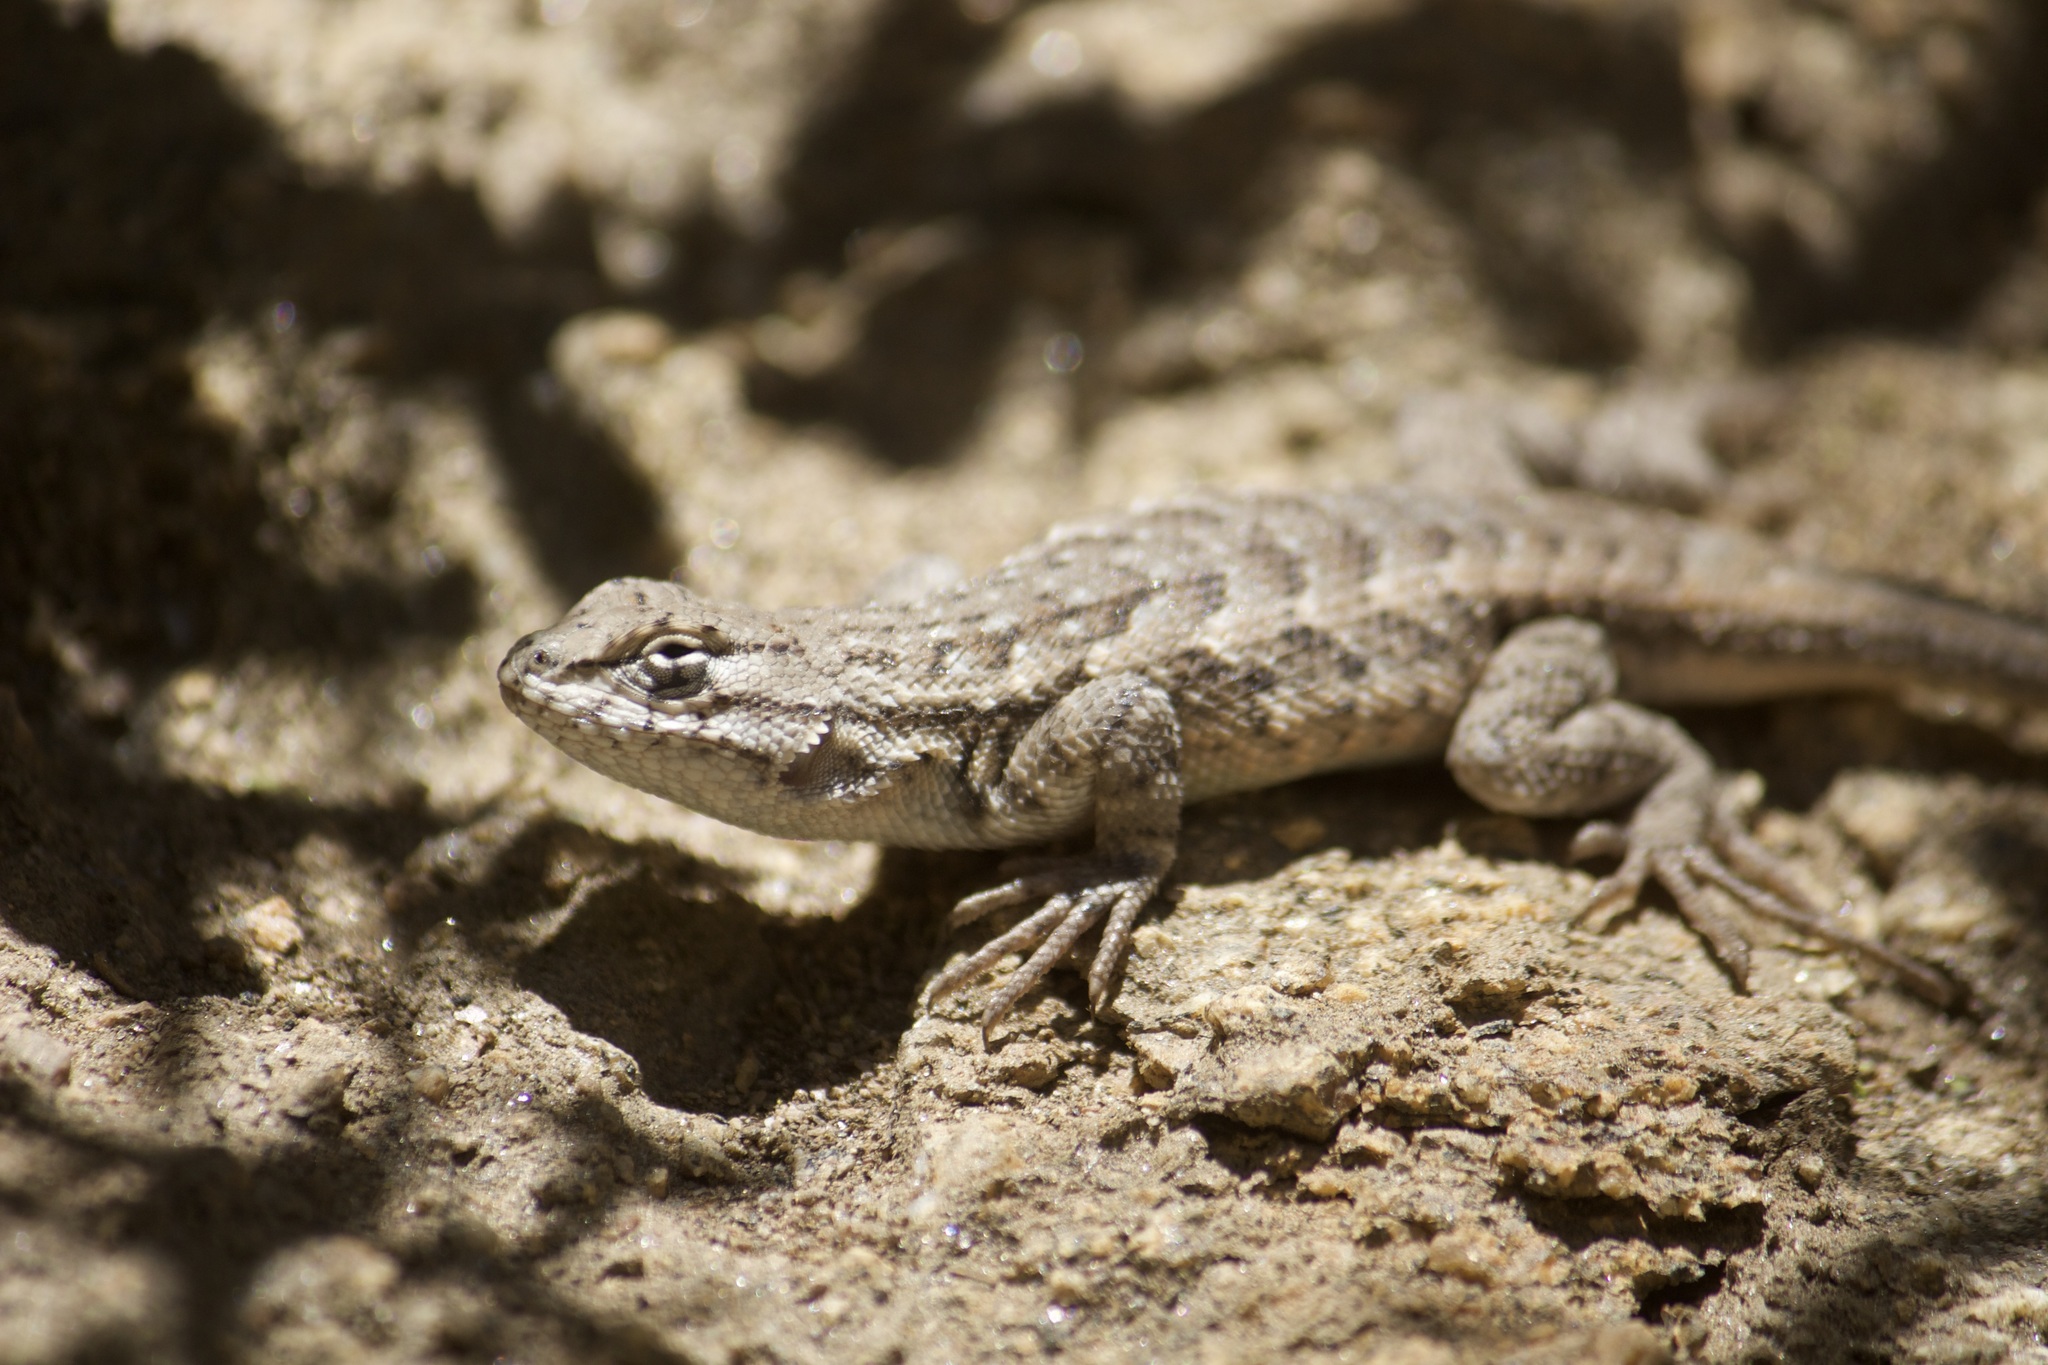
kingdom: Animalia
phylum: Chordata
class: Squamata
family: Phrynosomatidae
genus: Sceloporus
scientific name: Sceloporus graciosus
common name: Sagebrush lizard
